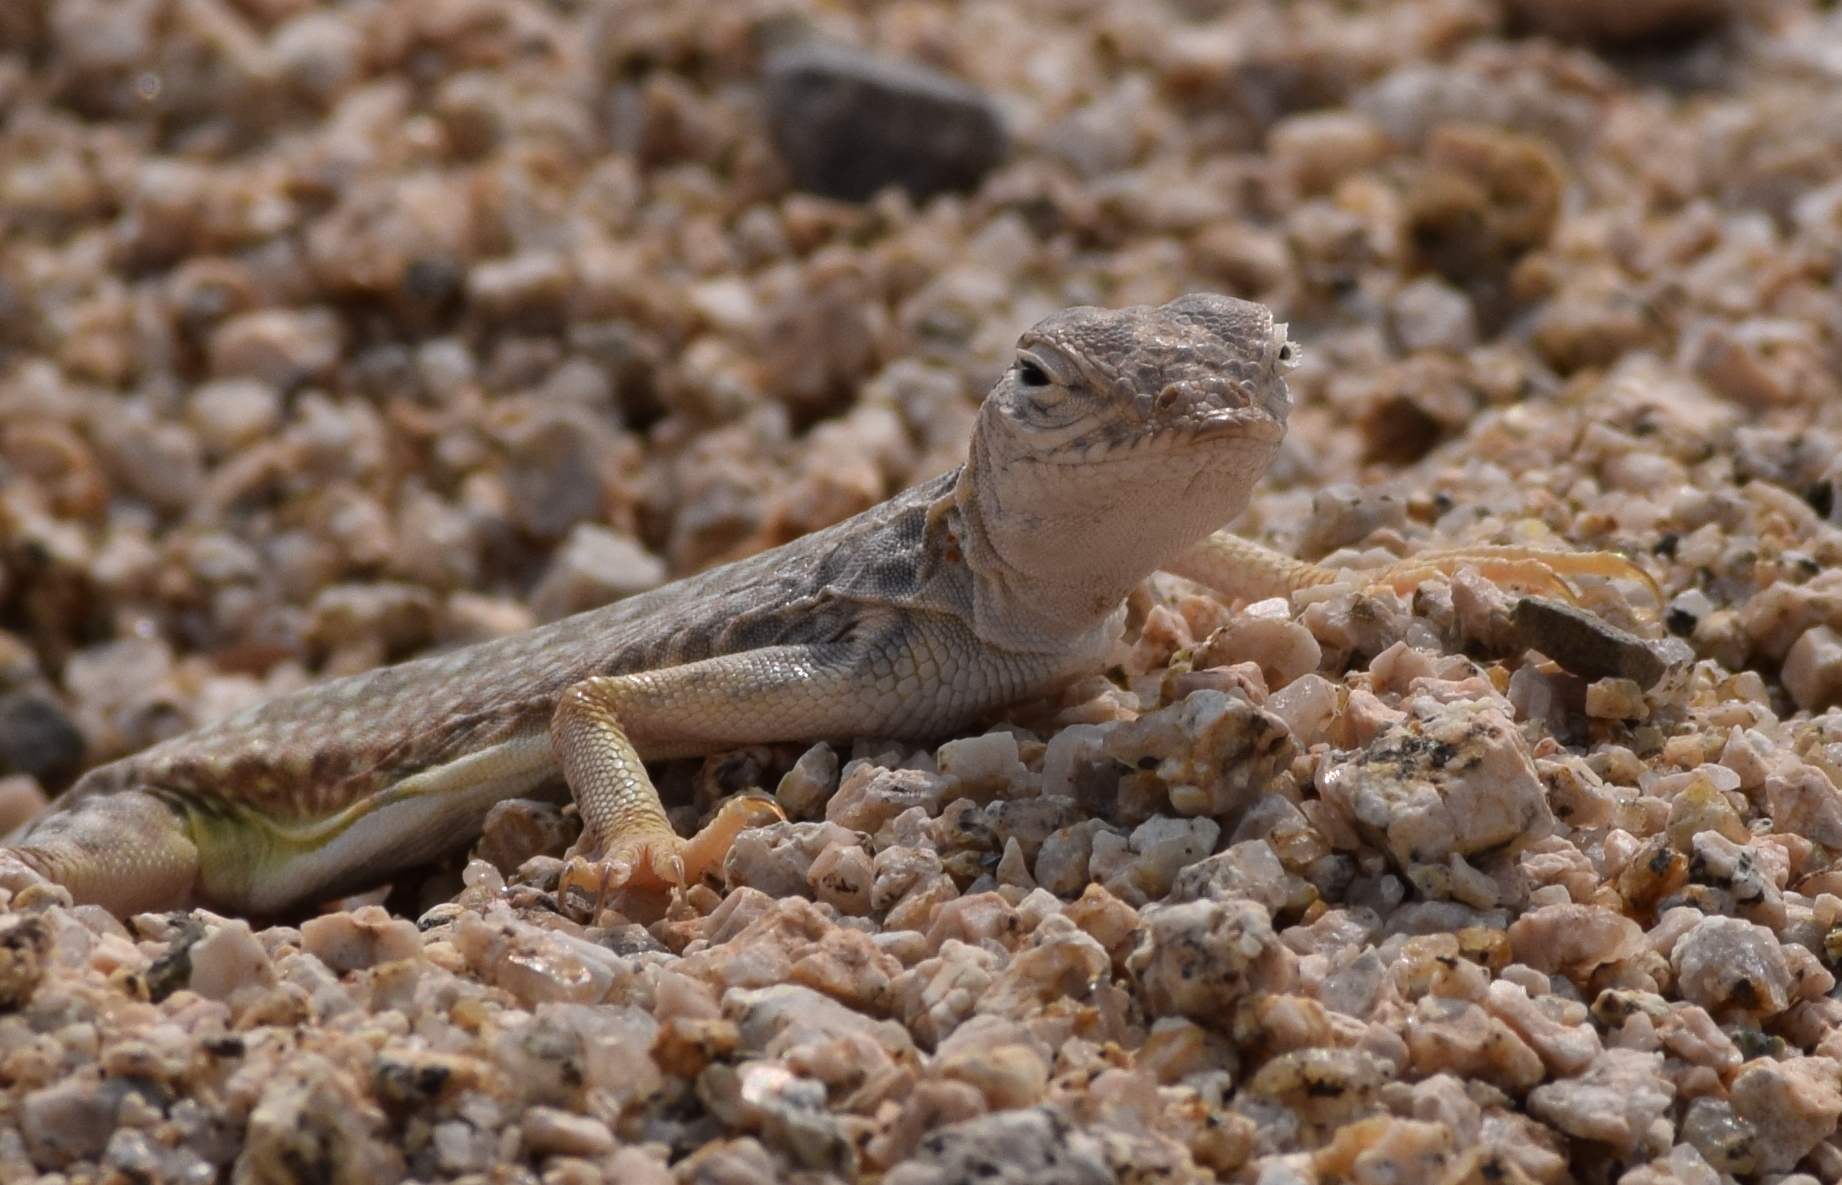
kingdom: Animalia
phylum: Chordata
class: Squamata
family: Phrynosomatidae
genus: Callisaurus
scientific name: Callisaurus draconoides
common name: Zebra-tailed lizard
